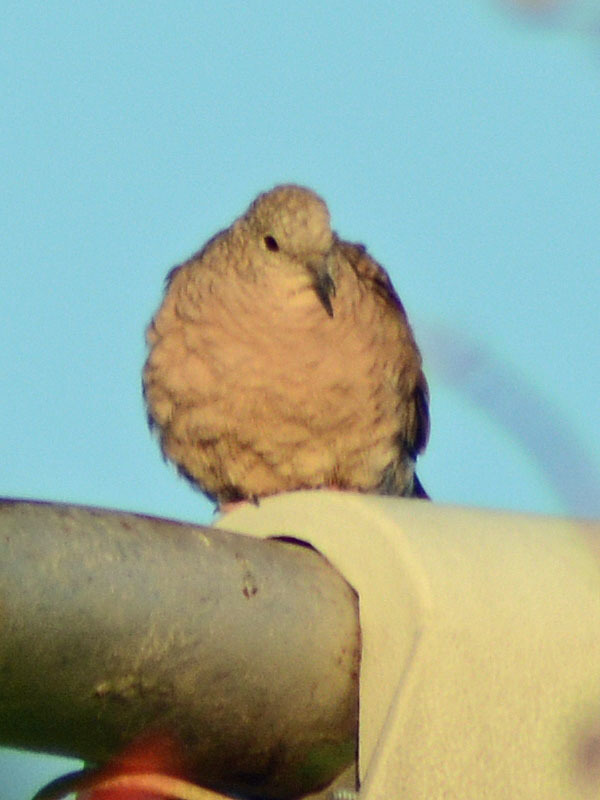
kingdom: Animalia
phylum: Chordata
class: Aves
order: Columbiformes
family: Columbidae
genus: Columbina
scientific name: Columbina inca
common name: Inca dove
